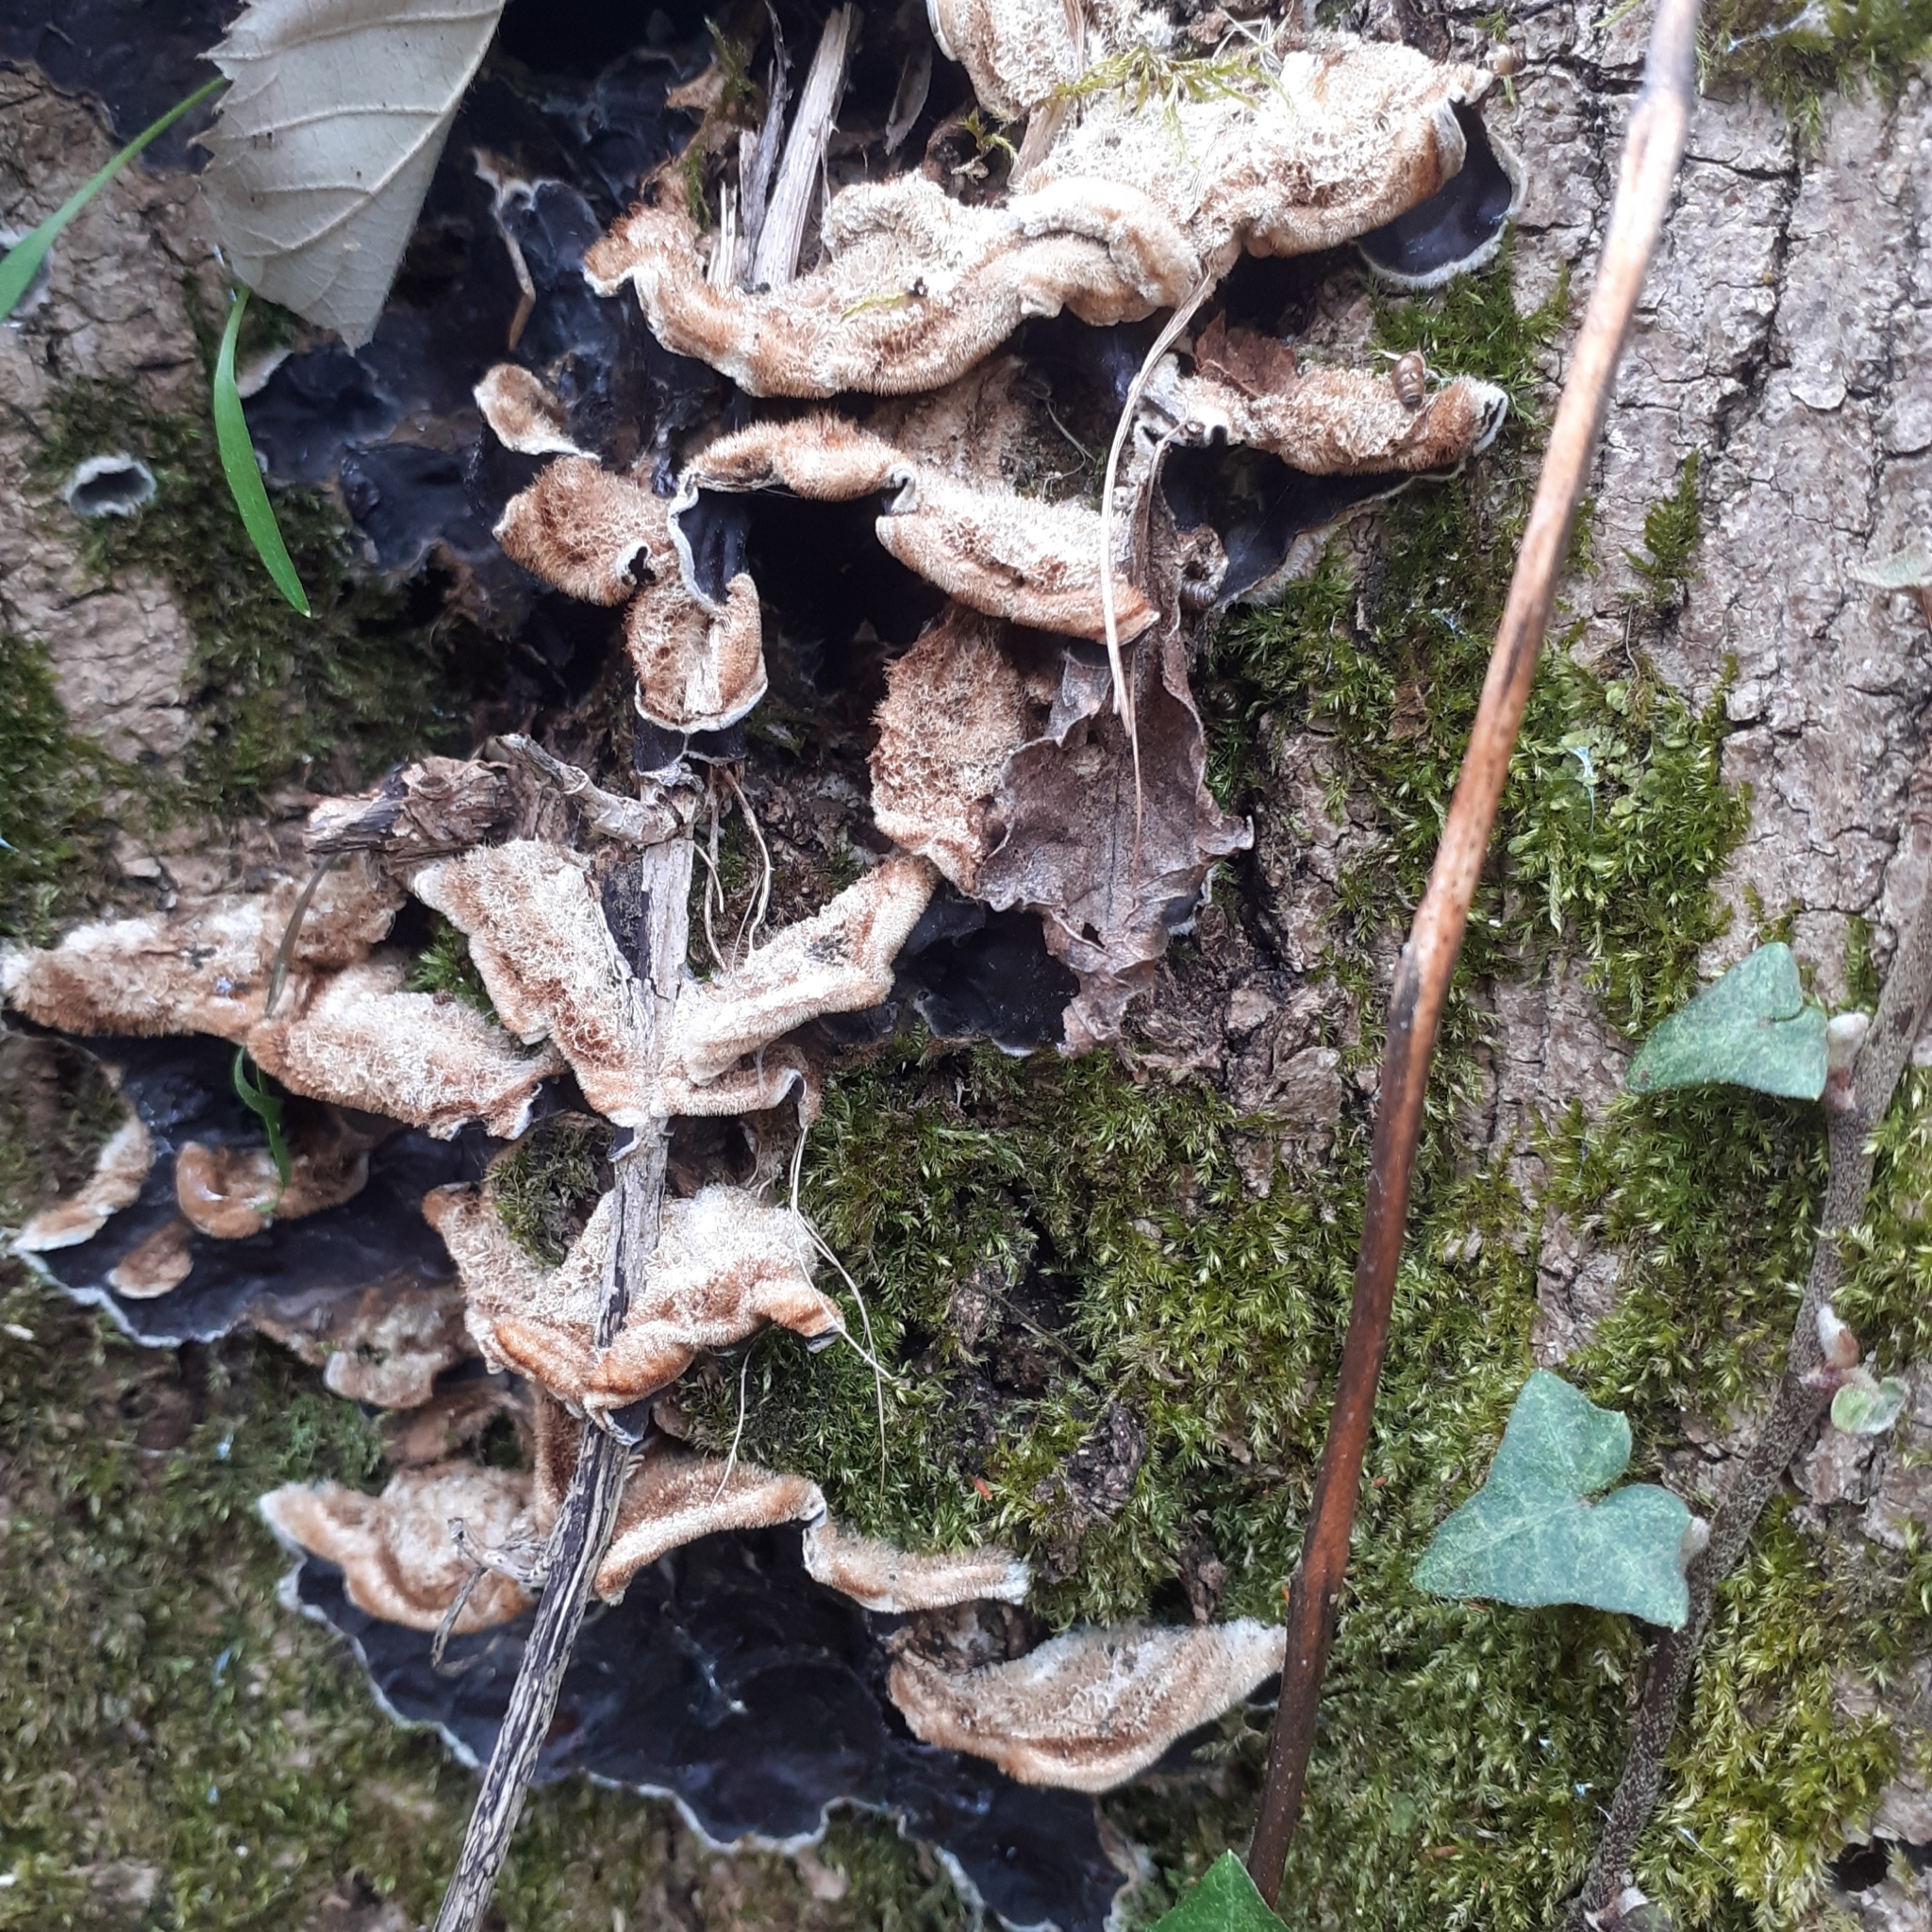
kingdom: Fungi
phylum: Basidiomycota
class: Agaricomycetes
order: Auriculariales
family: Auriculariaceae
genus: Auricularia
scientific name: Auricularia mesenterica
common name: Tripe fungus
